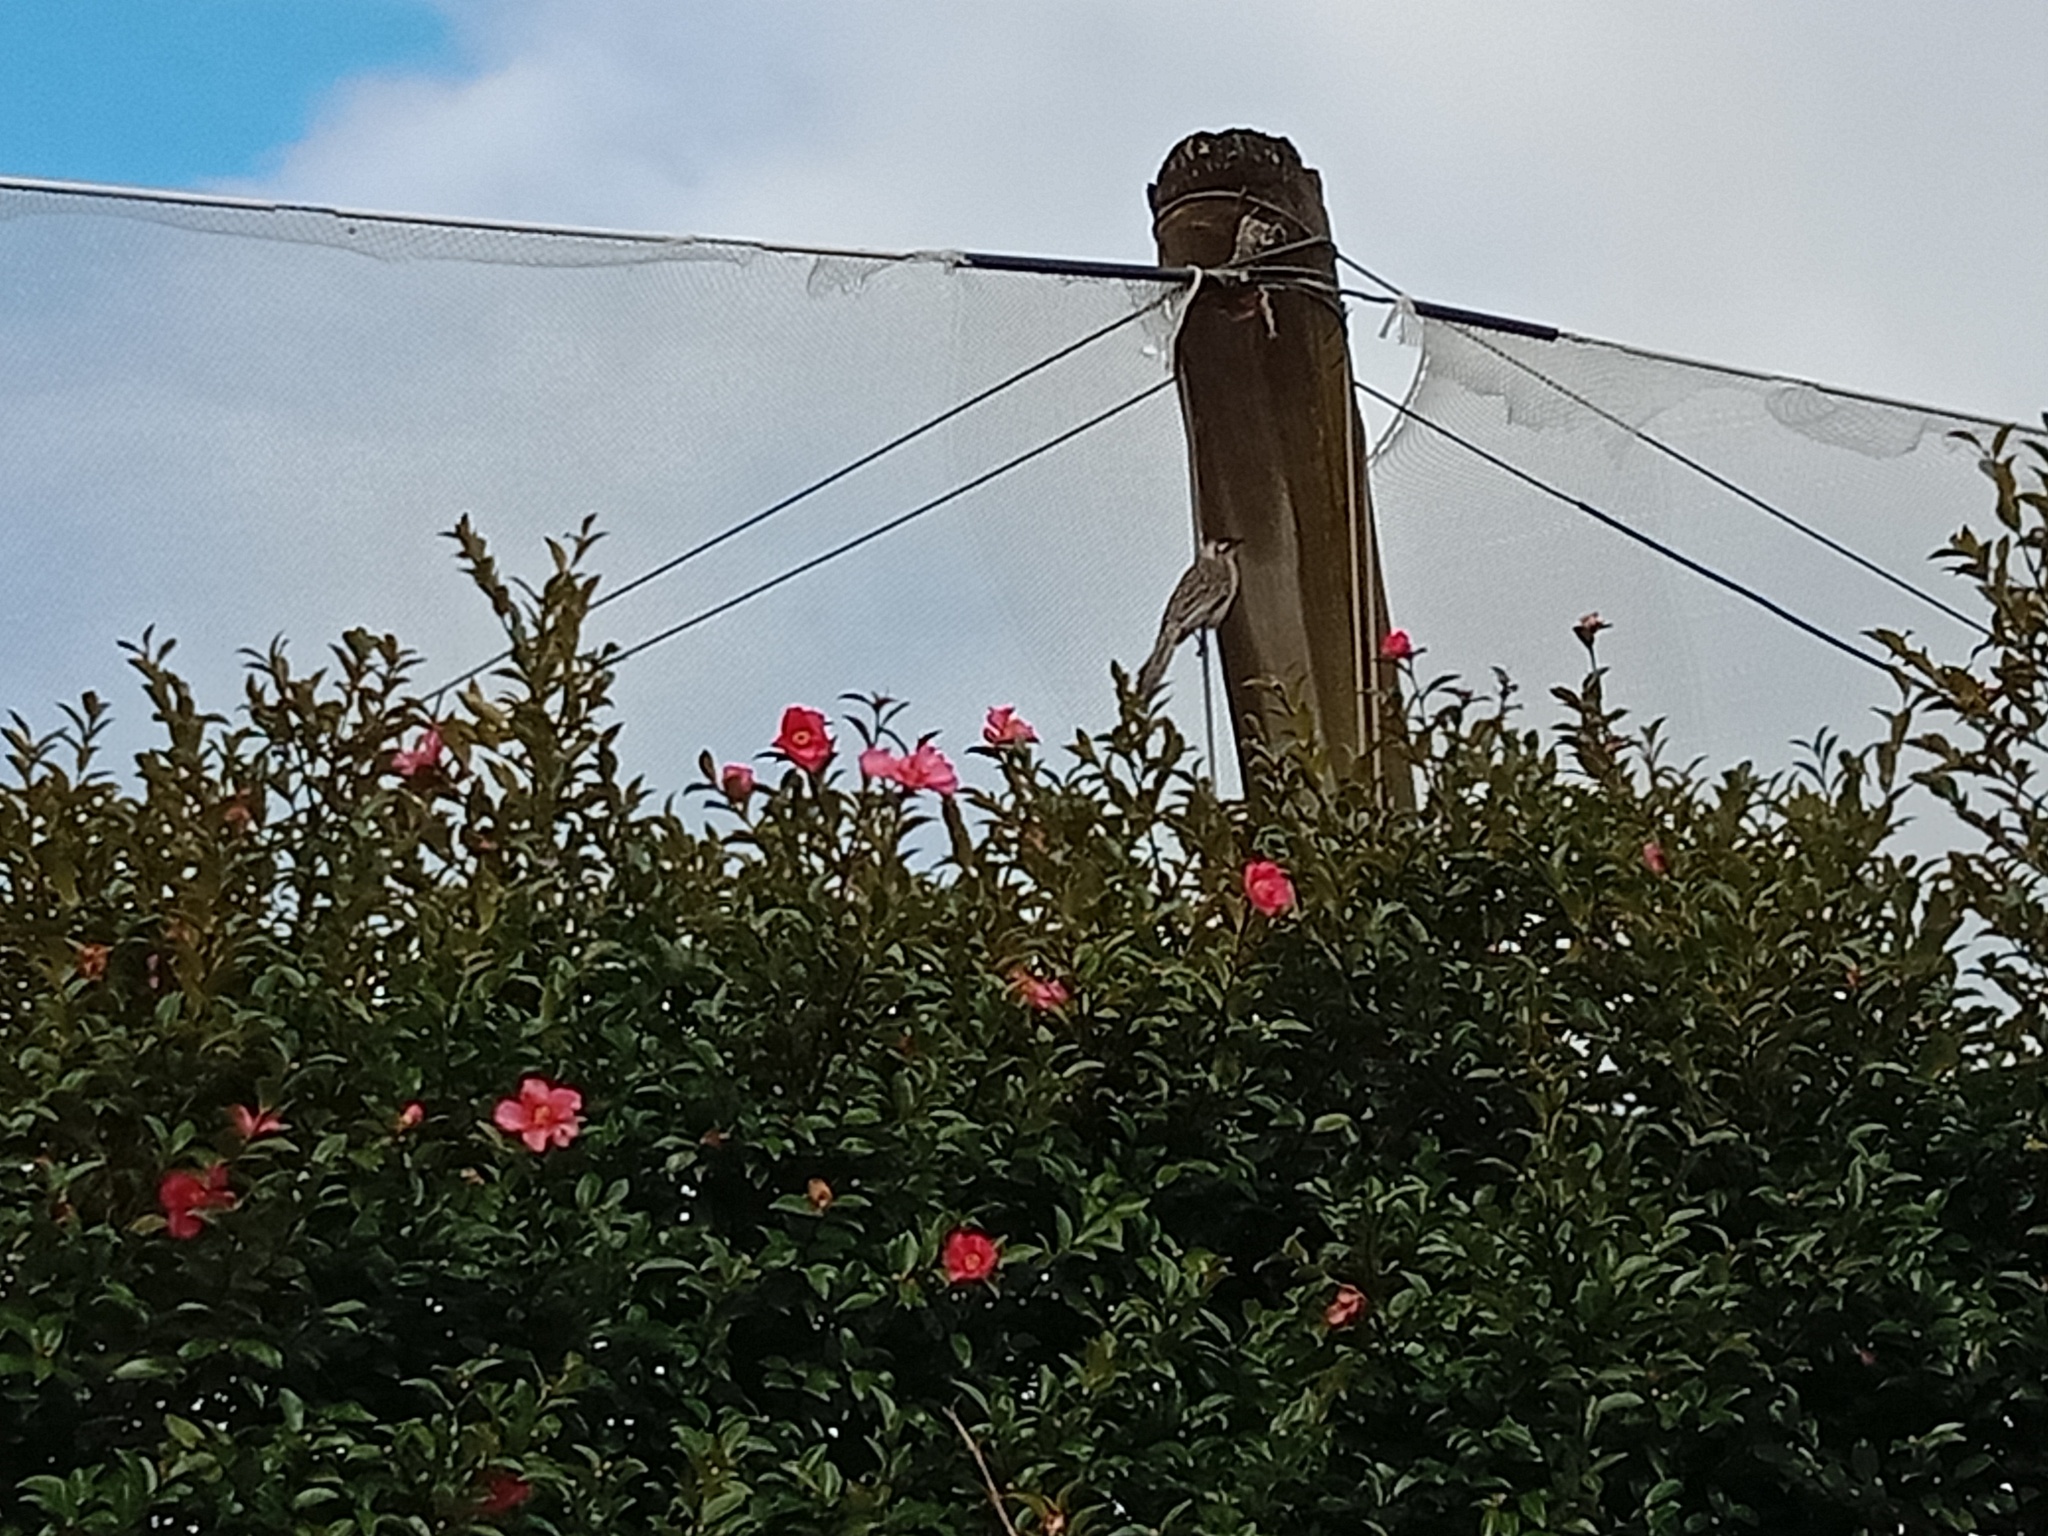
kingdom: Animalia
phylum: Chordata
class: Aves
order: Passeriformes
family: Meliphagidae
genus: Anthochaera
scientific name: Anthochaera carunculata
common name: Red wattlebird
